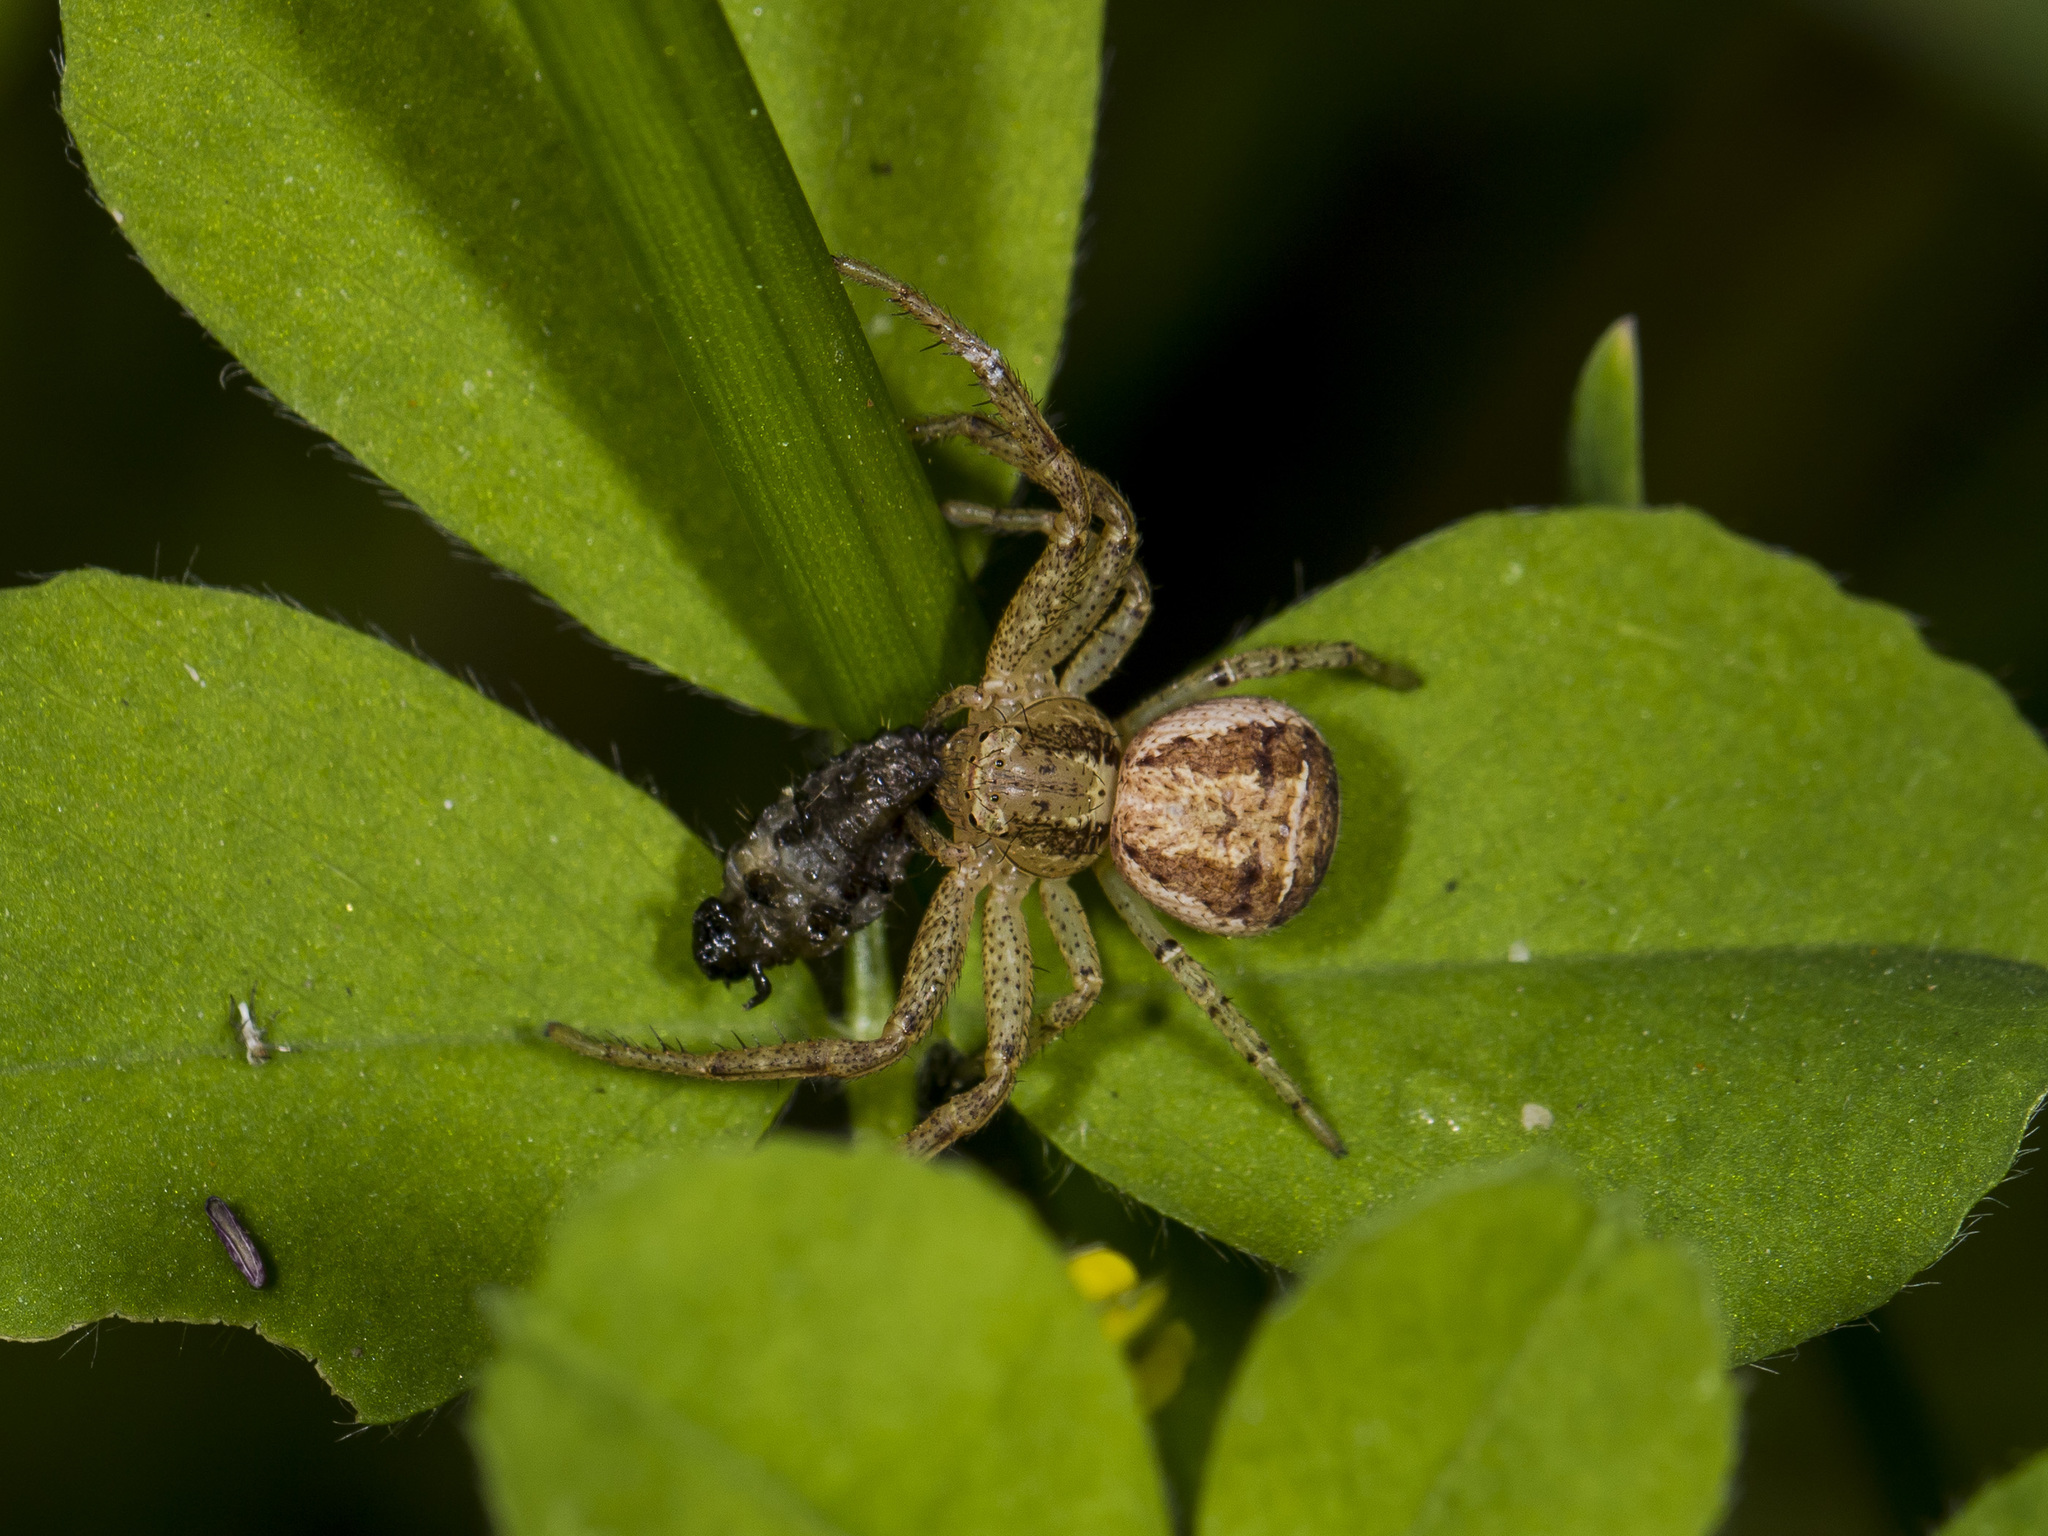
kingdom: Animalia
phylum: Arthropoda
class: Arachnida
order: Araneae
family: Thomisidae
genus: Xysticus
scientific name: Xysticus ephippiatus
